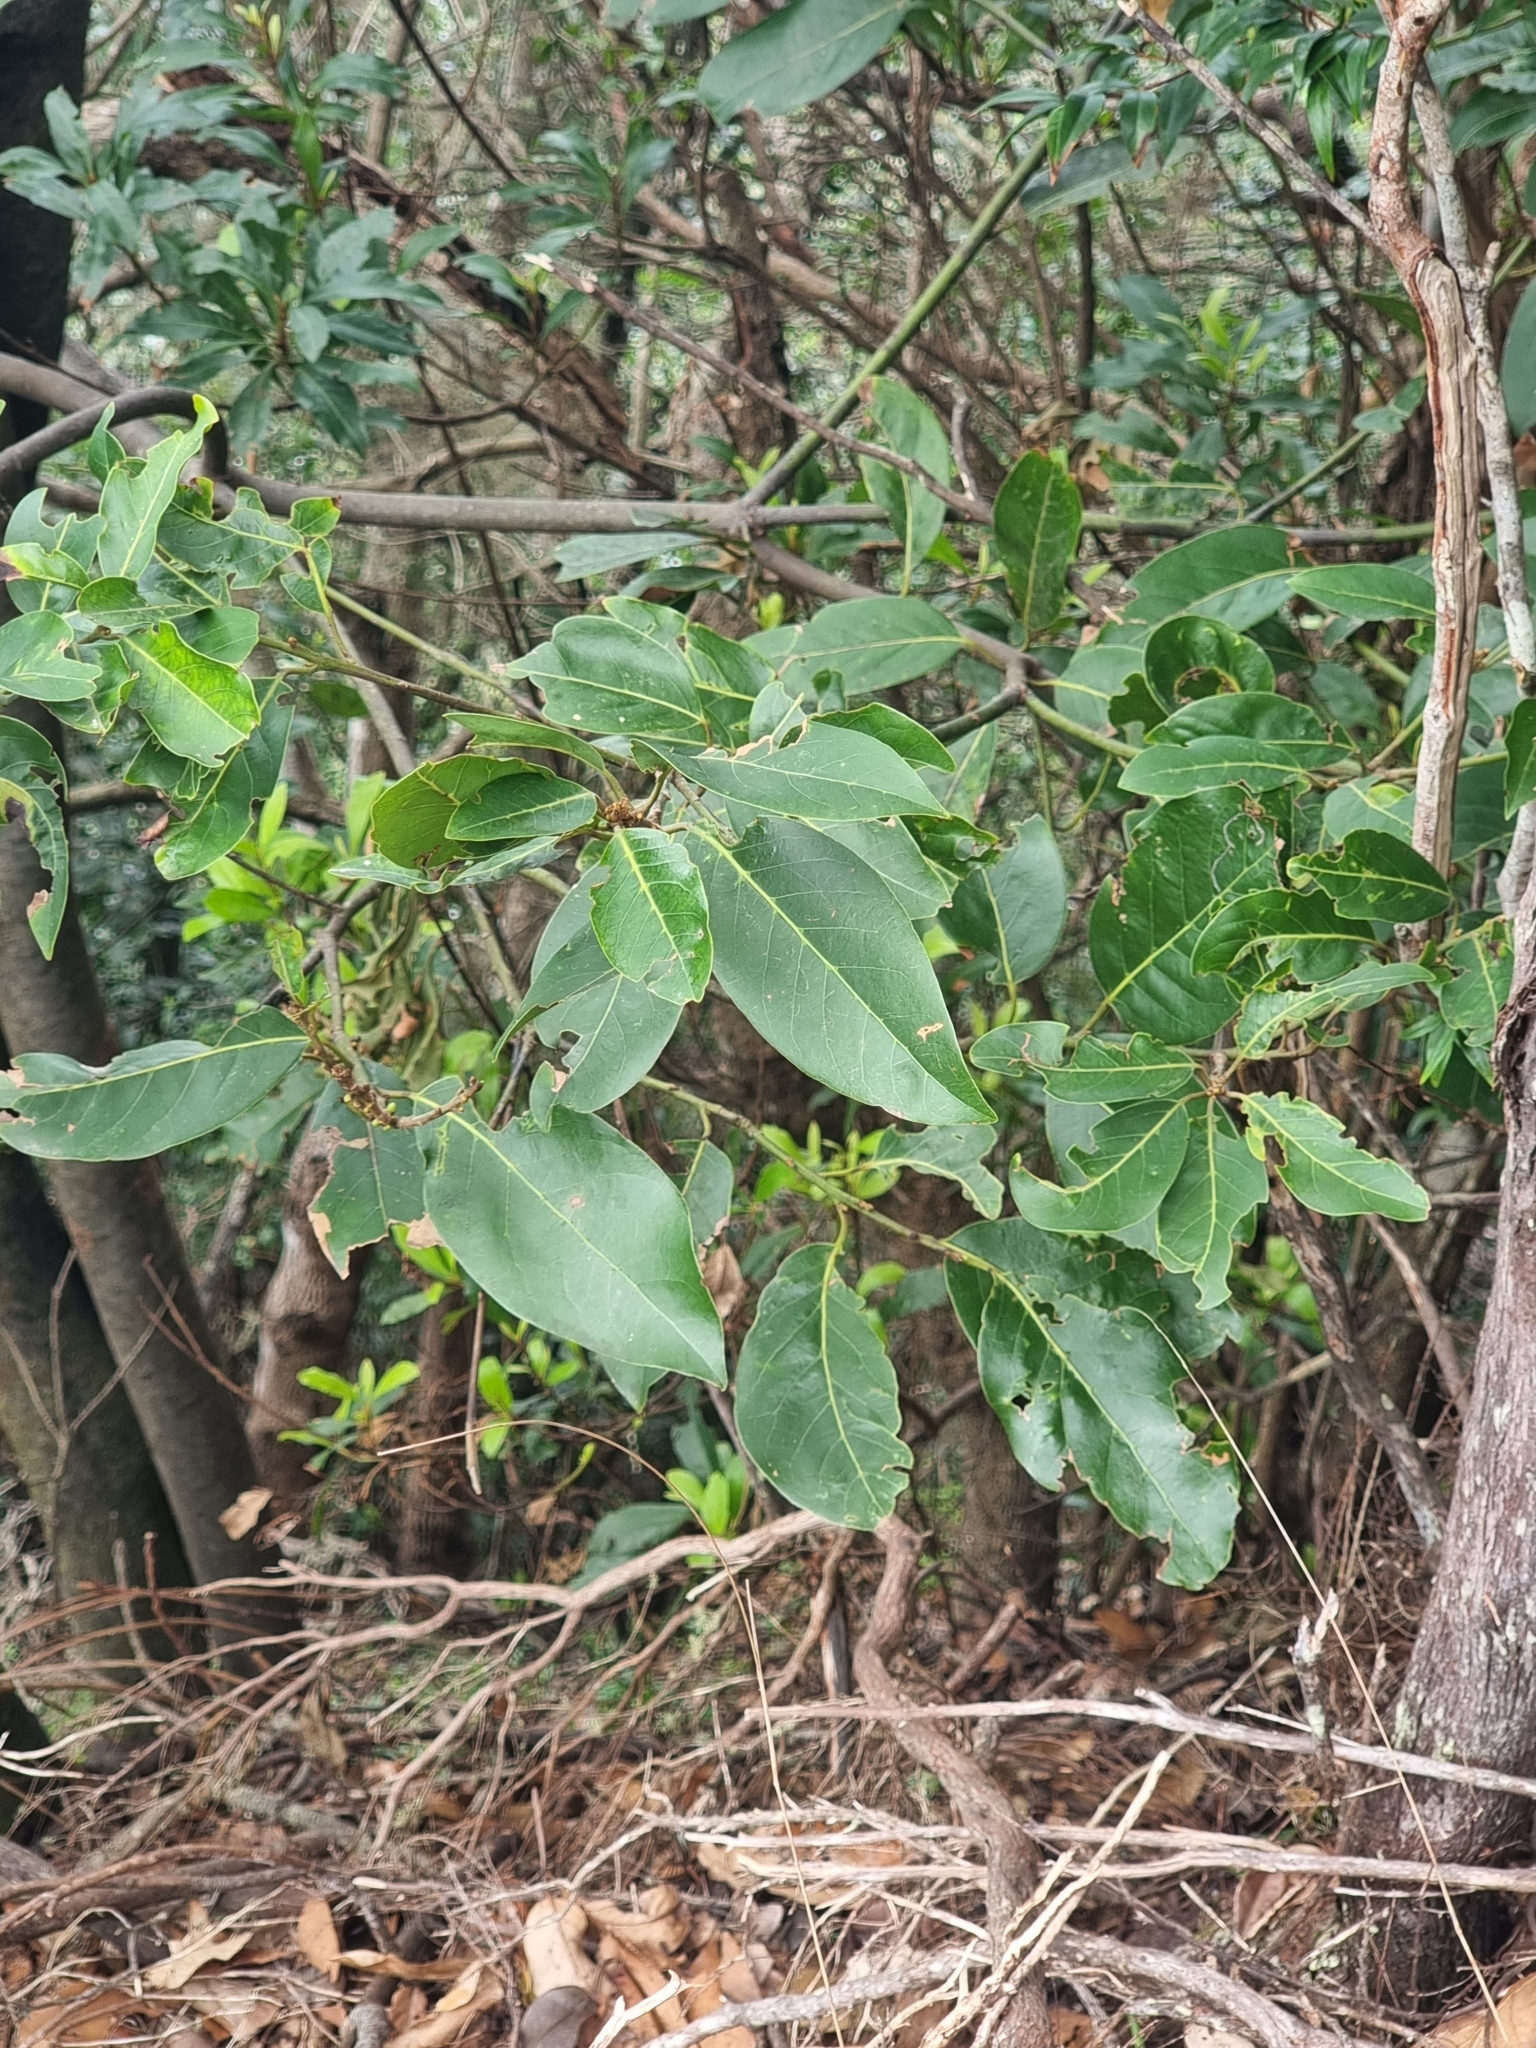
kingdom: Plantae
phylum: Tracheophyta
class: Magnoliopsida
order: Laurales
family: Lauraceae
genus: Laurus
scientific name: Laurus novocanariensis
